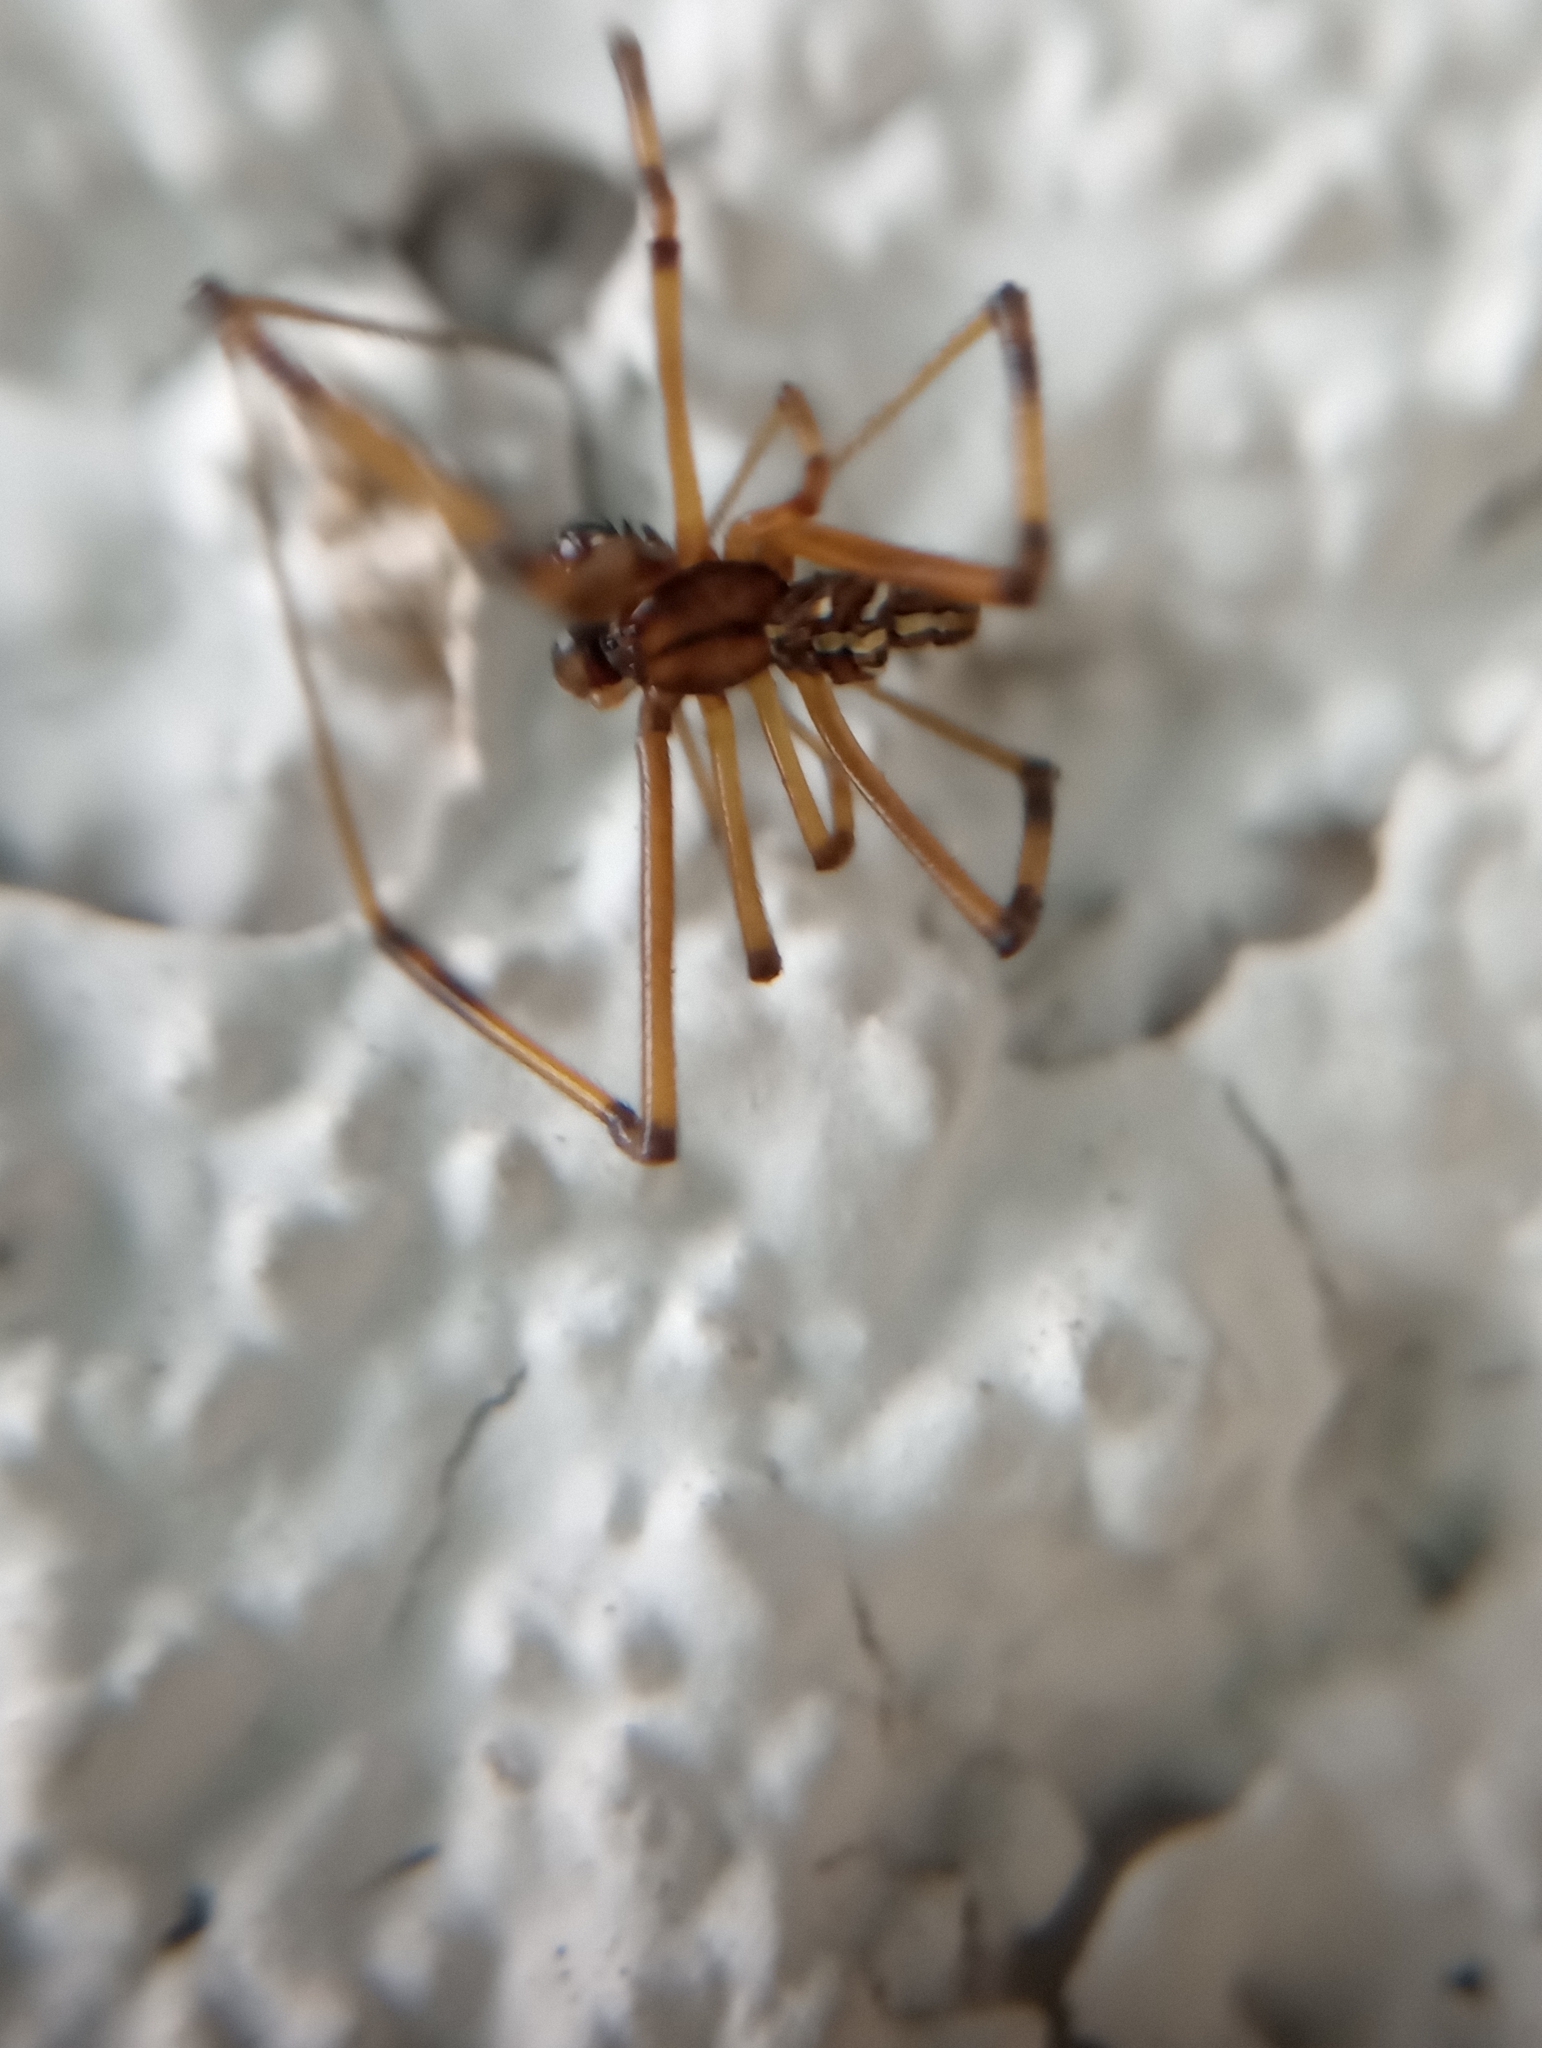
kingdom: Animalia
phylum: Arthropoda
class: Arachnida
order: Araneae
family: Theridiidae
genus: Latrodectus
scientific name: Latrodectus hesperus
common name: Western black widow
